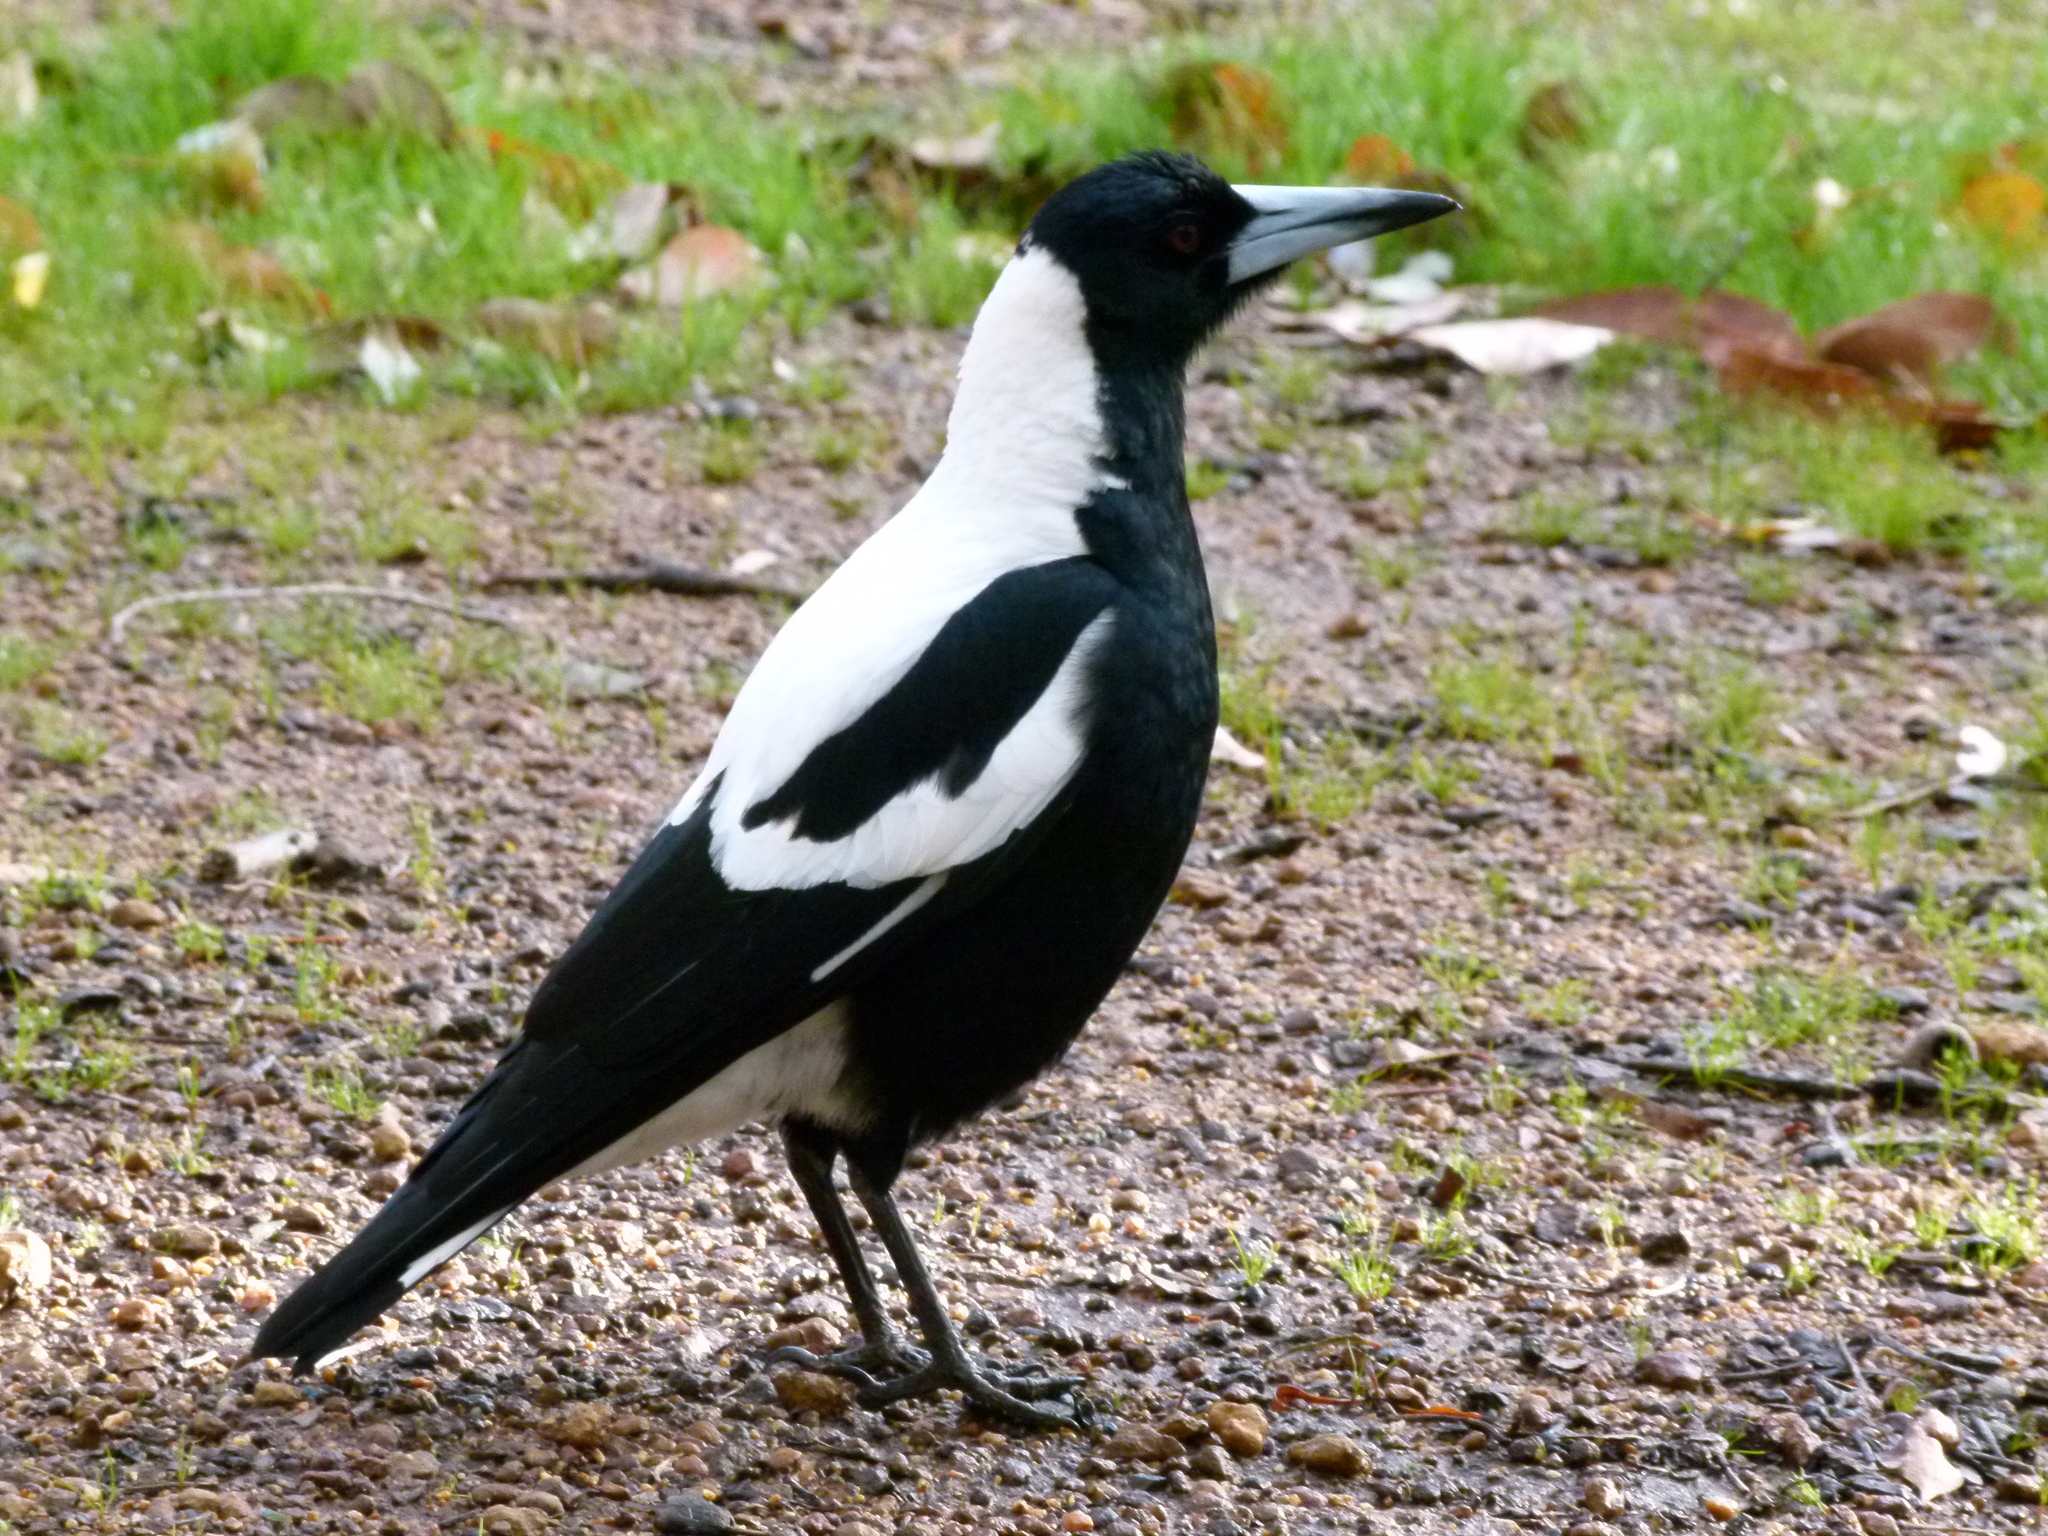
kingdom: Animalia
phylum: Chordata
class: Aves
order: Passeriformes
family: Cracticidae
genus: Gymnorhina
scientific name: Gymnorhina tibicen
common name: Australian magpie
